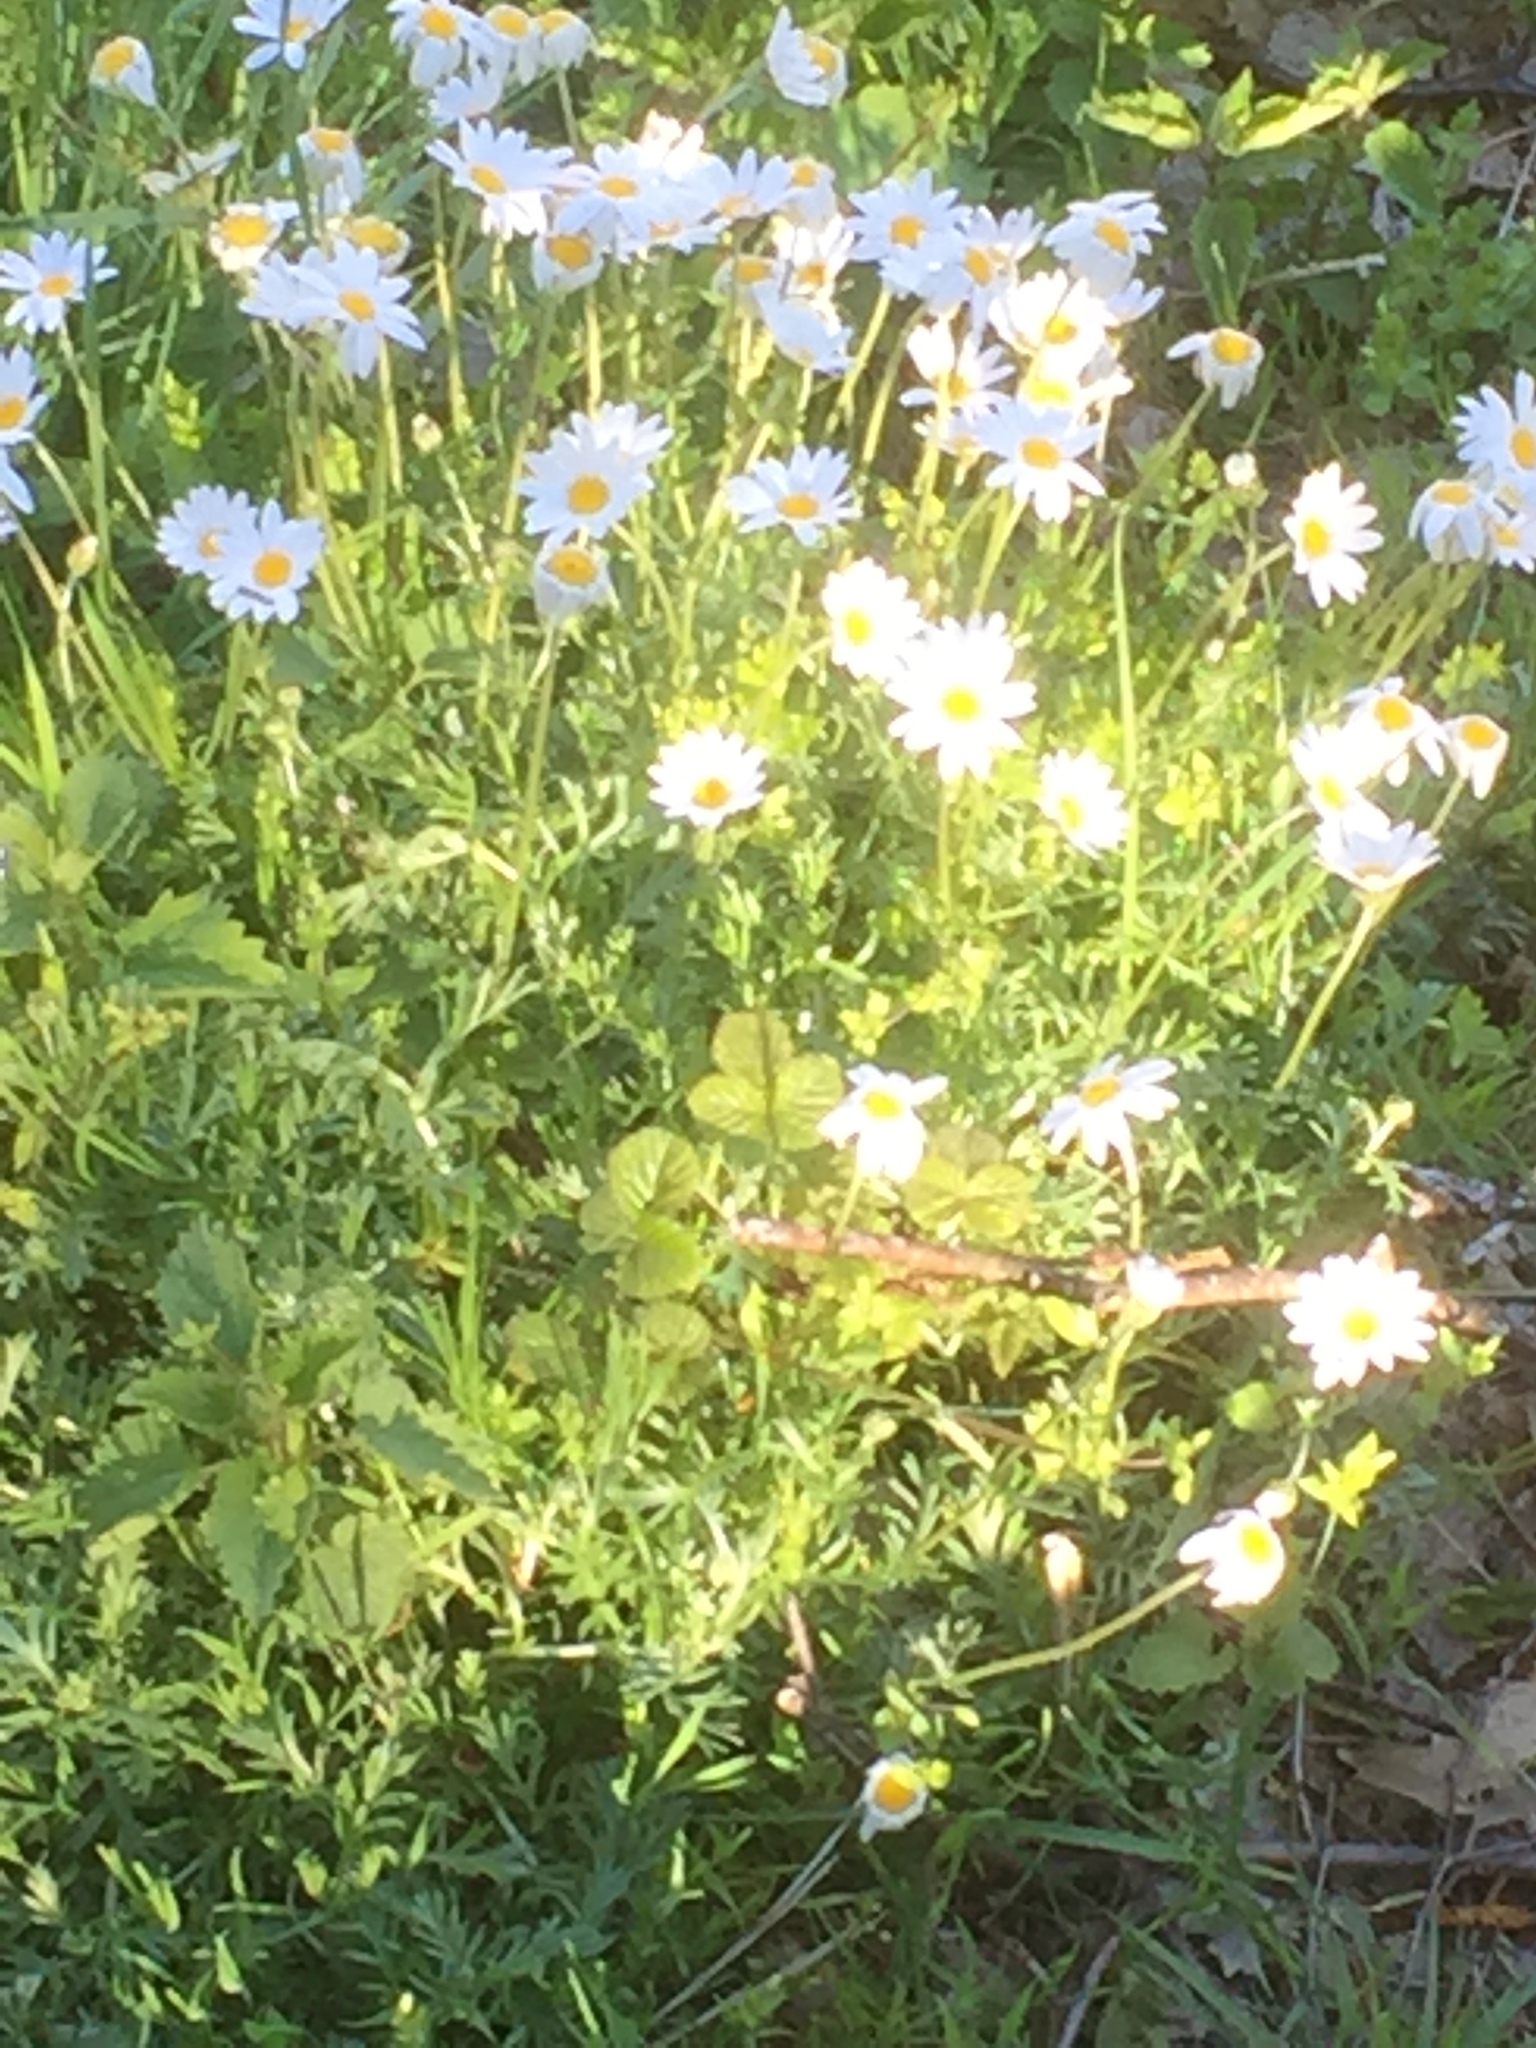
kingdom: Plantae
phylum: Tracheophyta
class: Magnoliopsida
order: Asterales
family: Asteraceae
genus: Phalacrocarpum
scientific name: Phalacrocarpum oppositifolium
